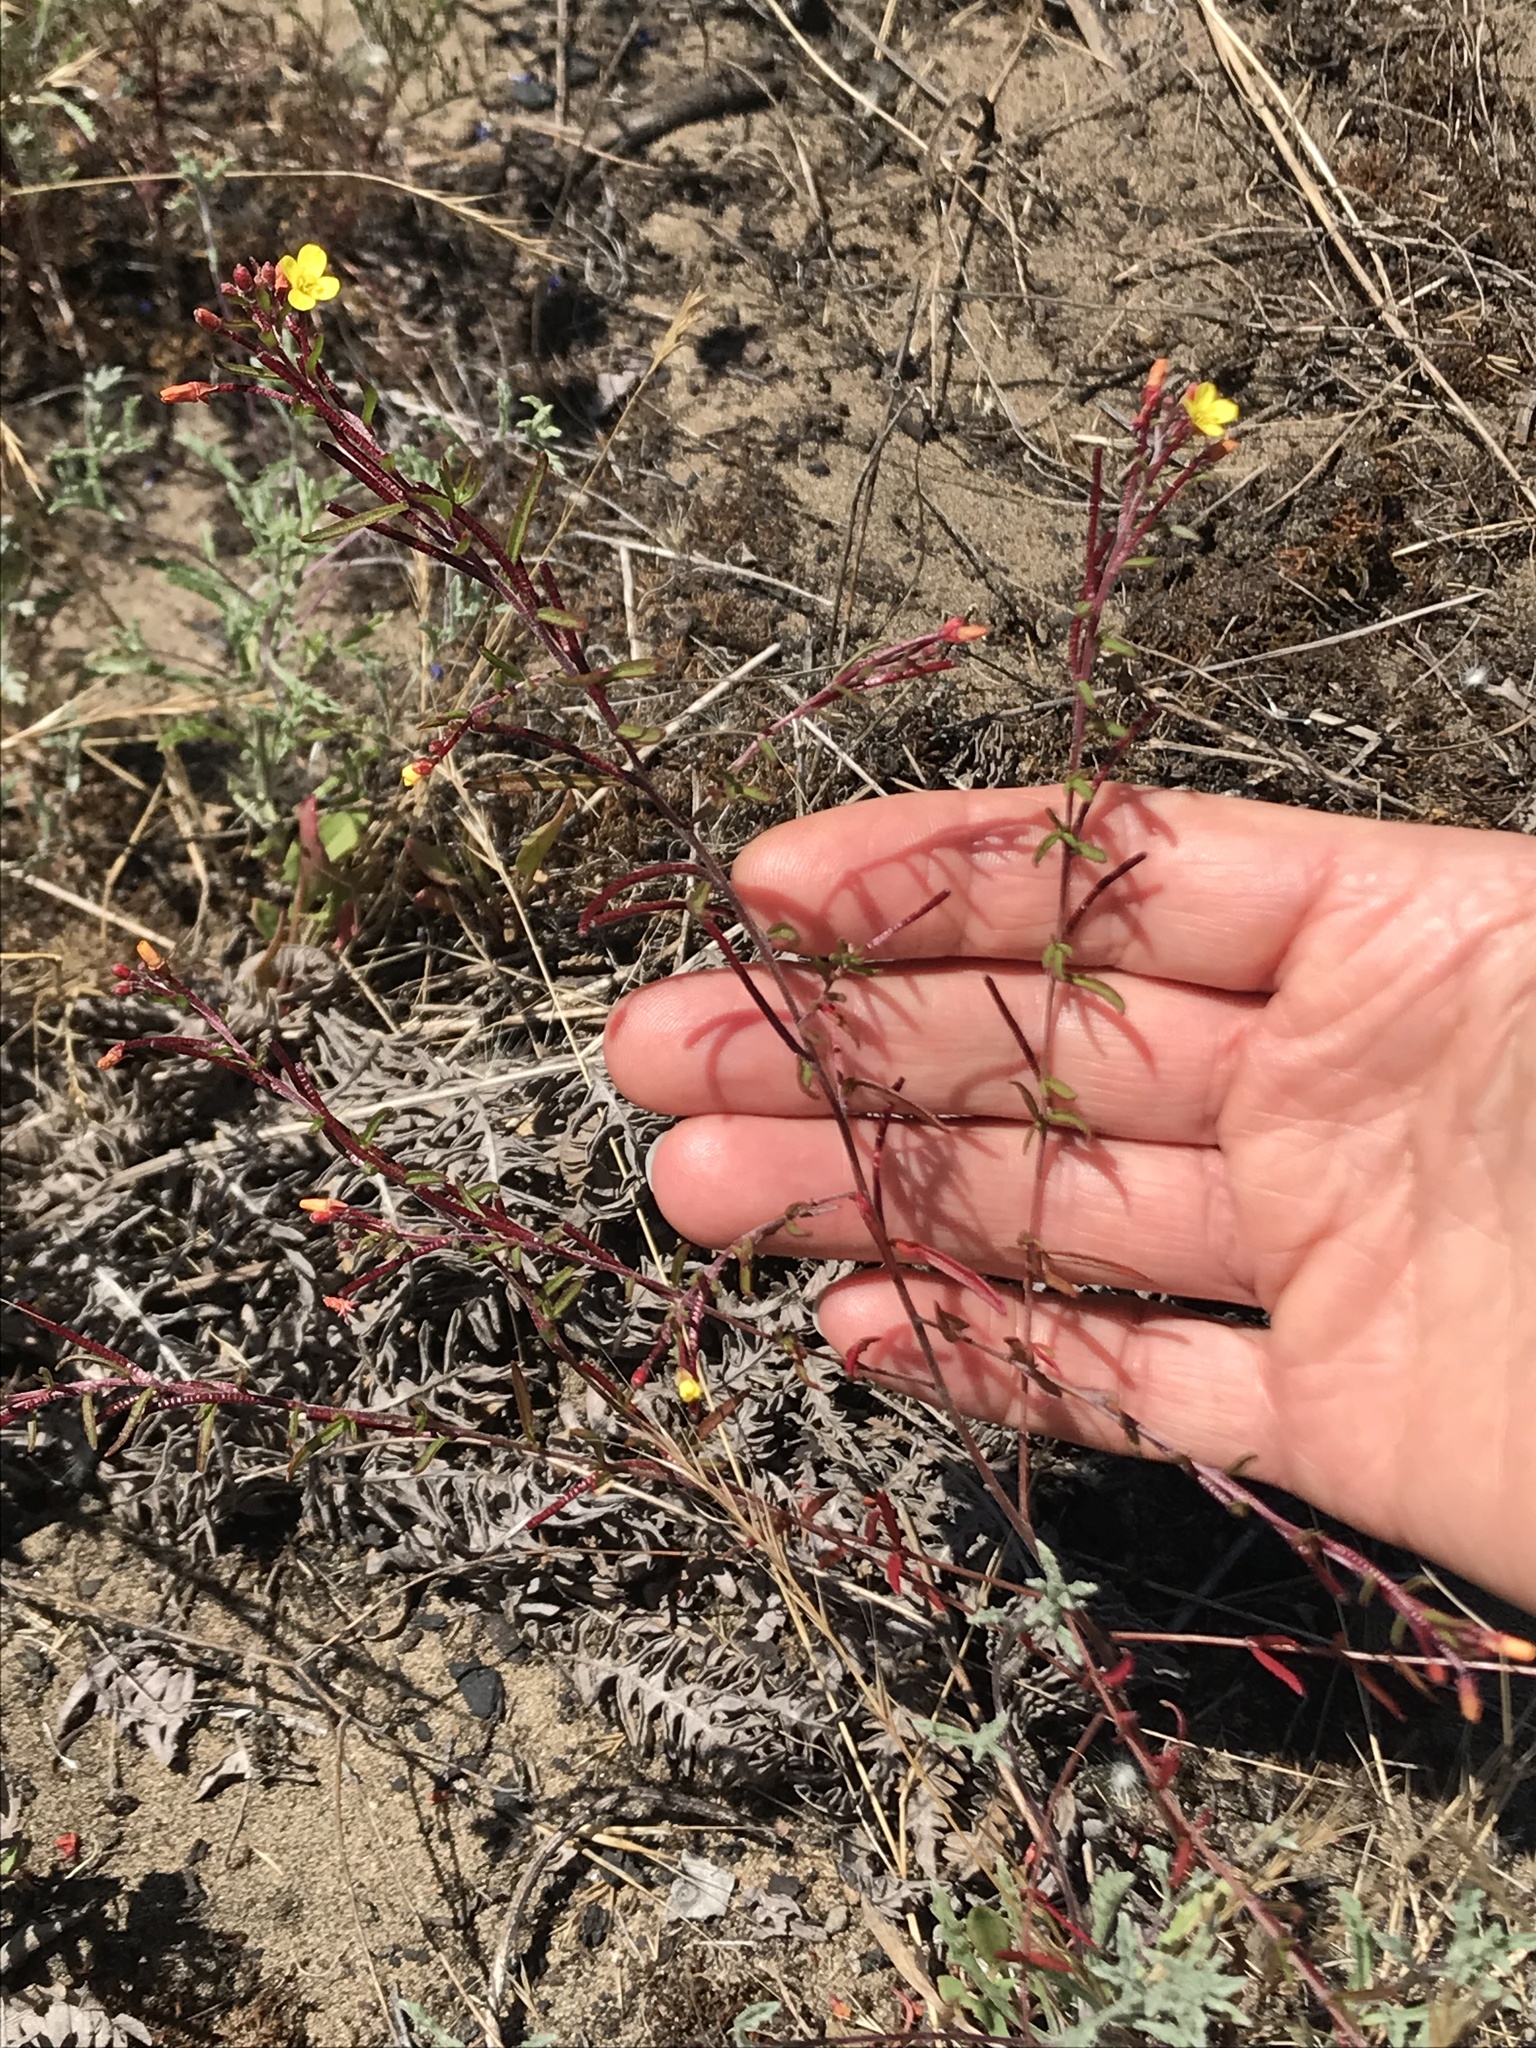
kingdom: Plantae
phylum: Tracheophyta
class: Magnoliopsida
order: Myrtales
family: Onagraceae
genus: Camissonia
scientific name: Camissonia strigulosa
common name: Contorted-primrose
